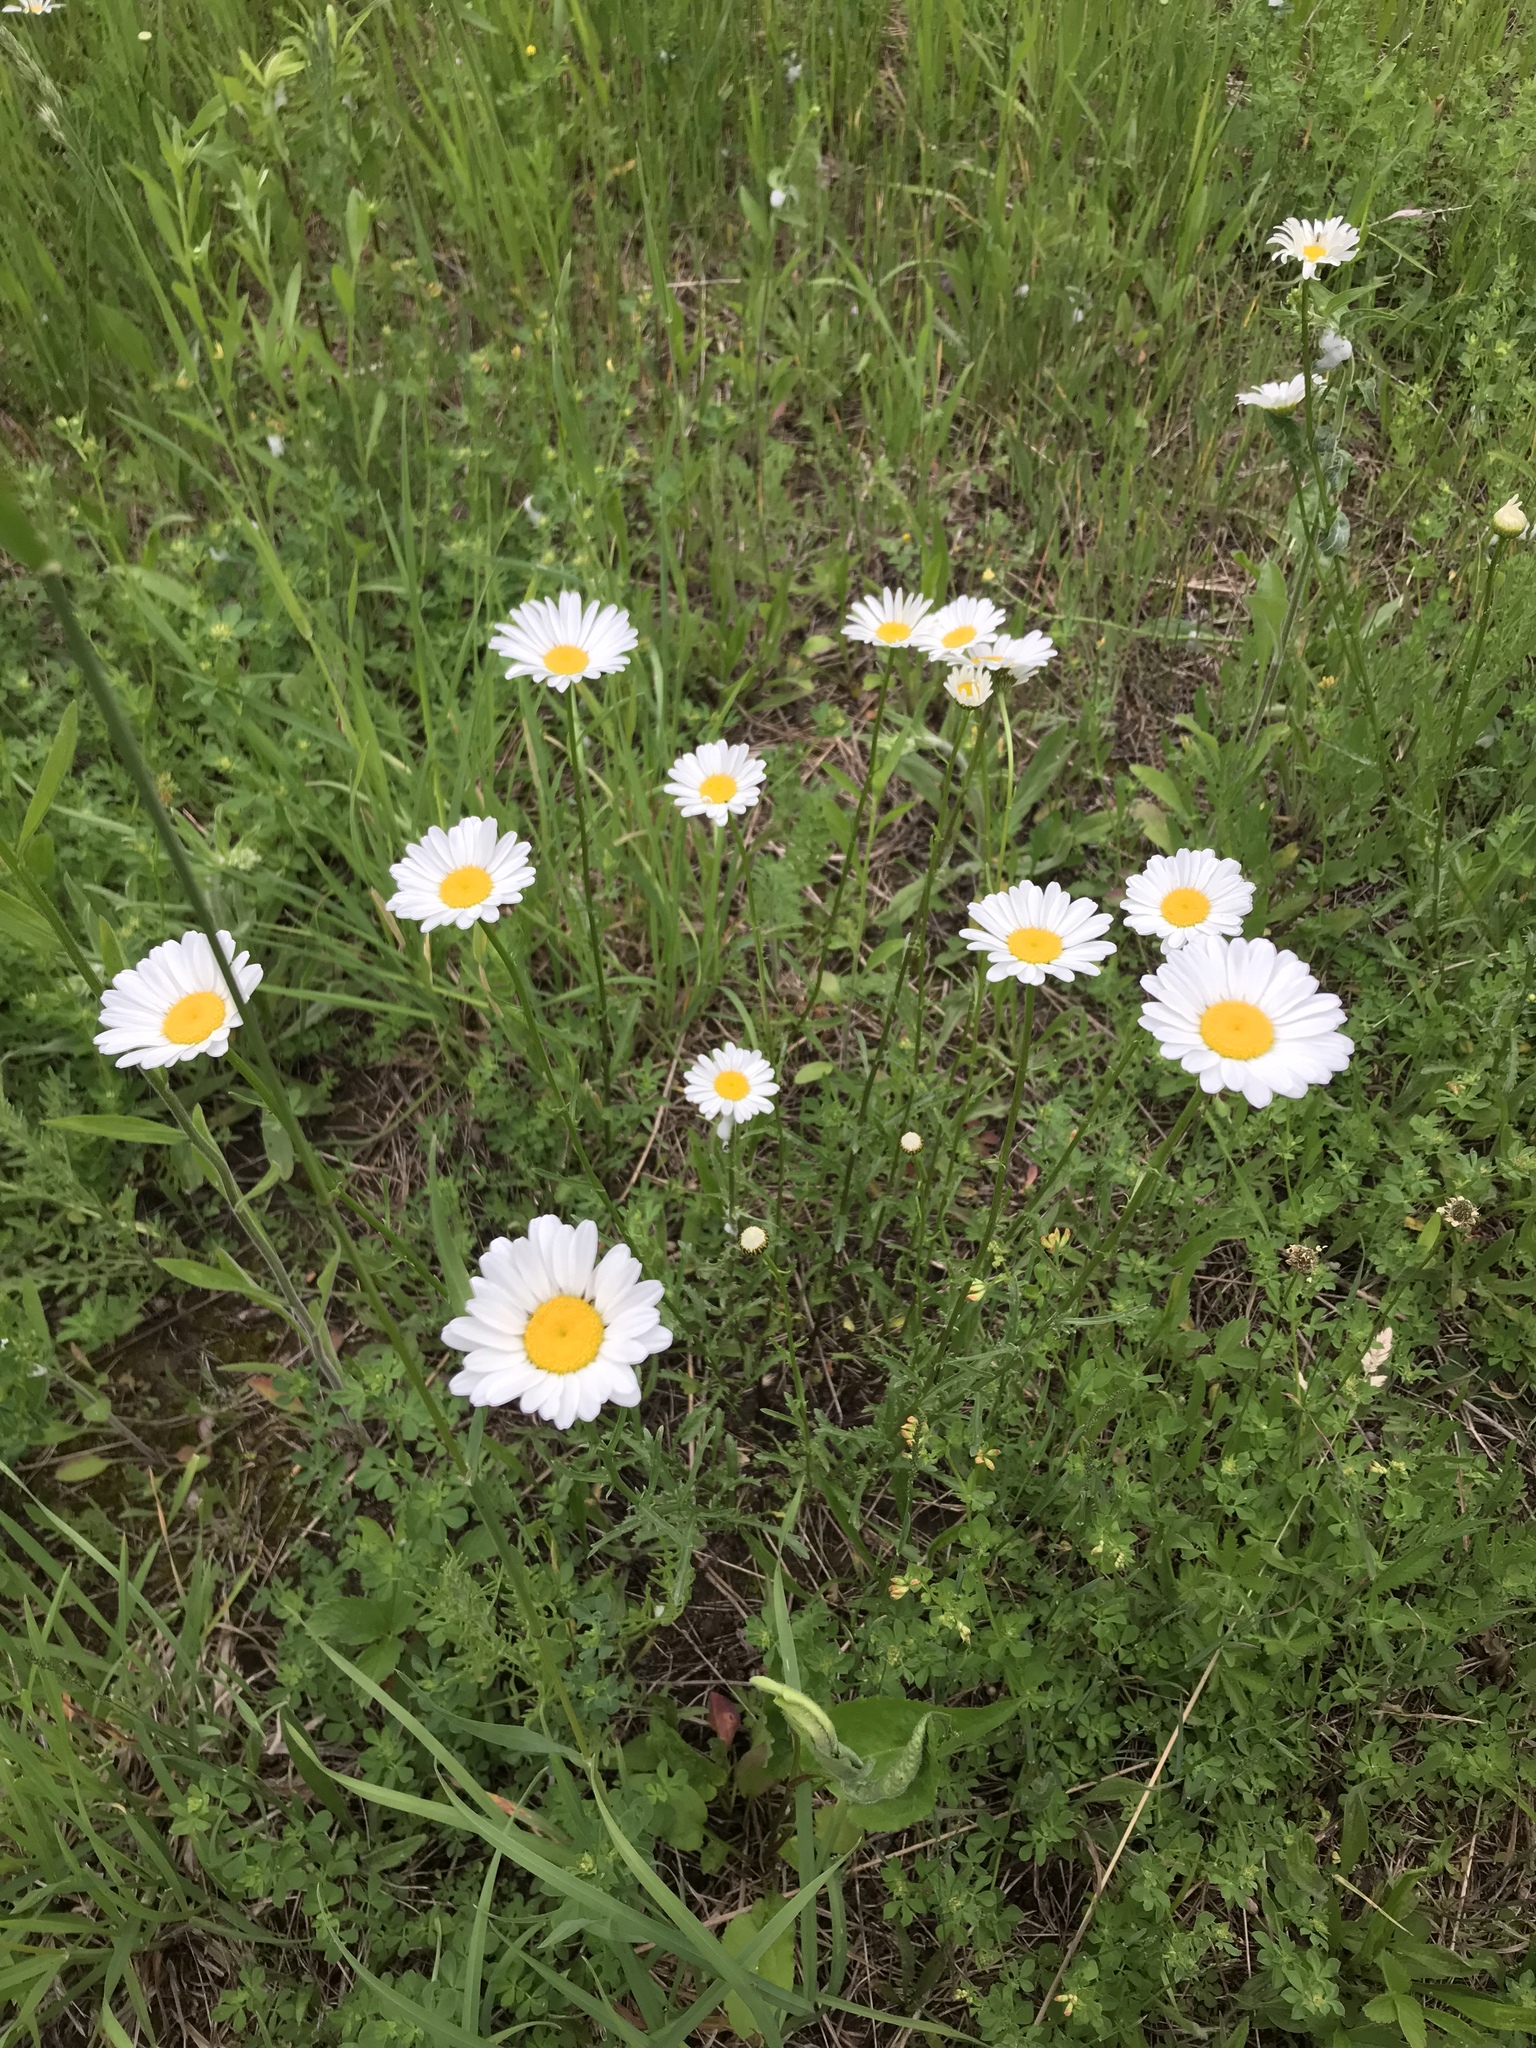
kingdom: Plantae
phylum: Tracheophyta
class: Magnoliopsida
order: Asterales
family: Asteraceae
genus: Leucanthemum
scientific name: Leucanthemum vulgare
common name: Oxeye daisy
